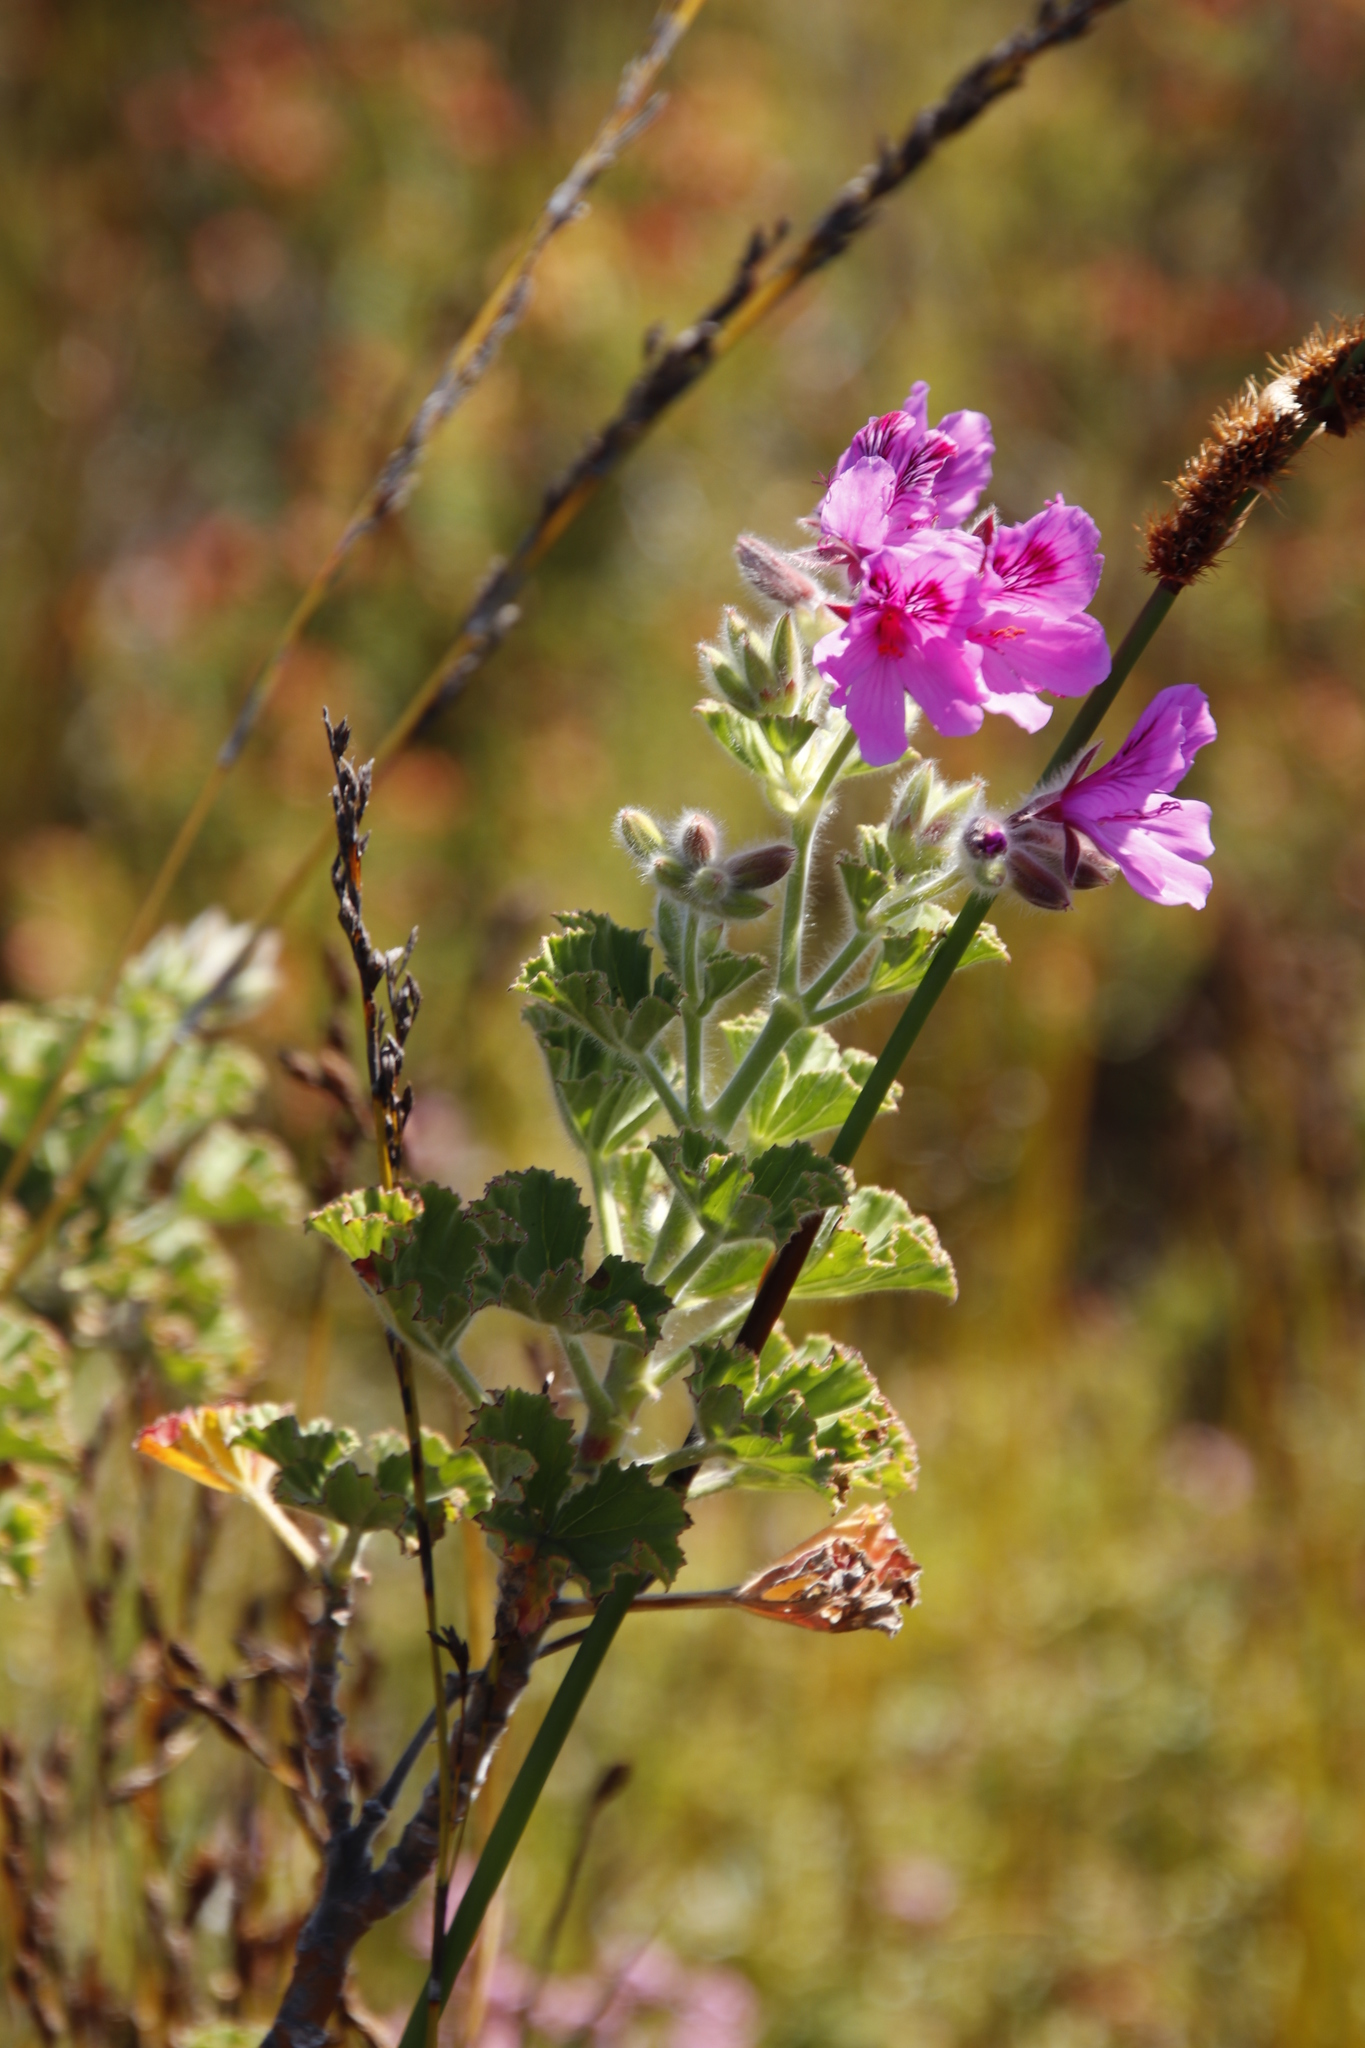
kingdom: Plantae
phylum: Tracheophyta
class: Magnoliopsida
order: Geraniales
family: Geraniaceae
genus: Pelargonium
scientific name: Pelargonium cucullatum
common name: Tree pelargonium
